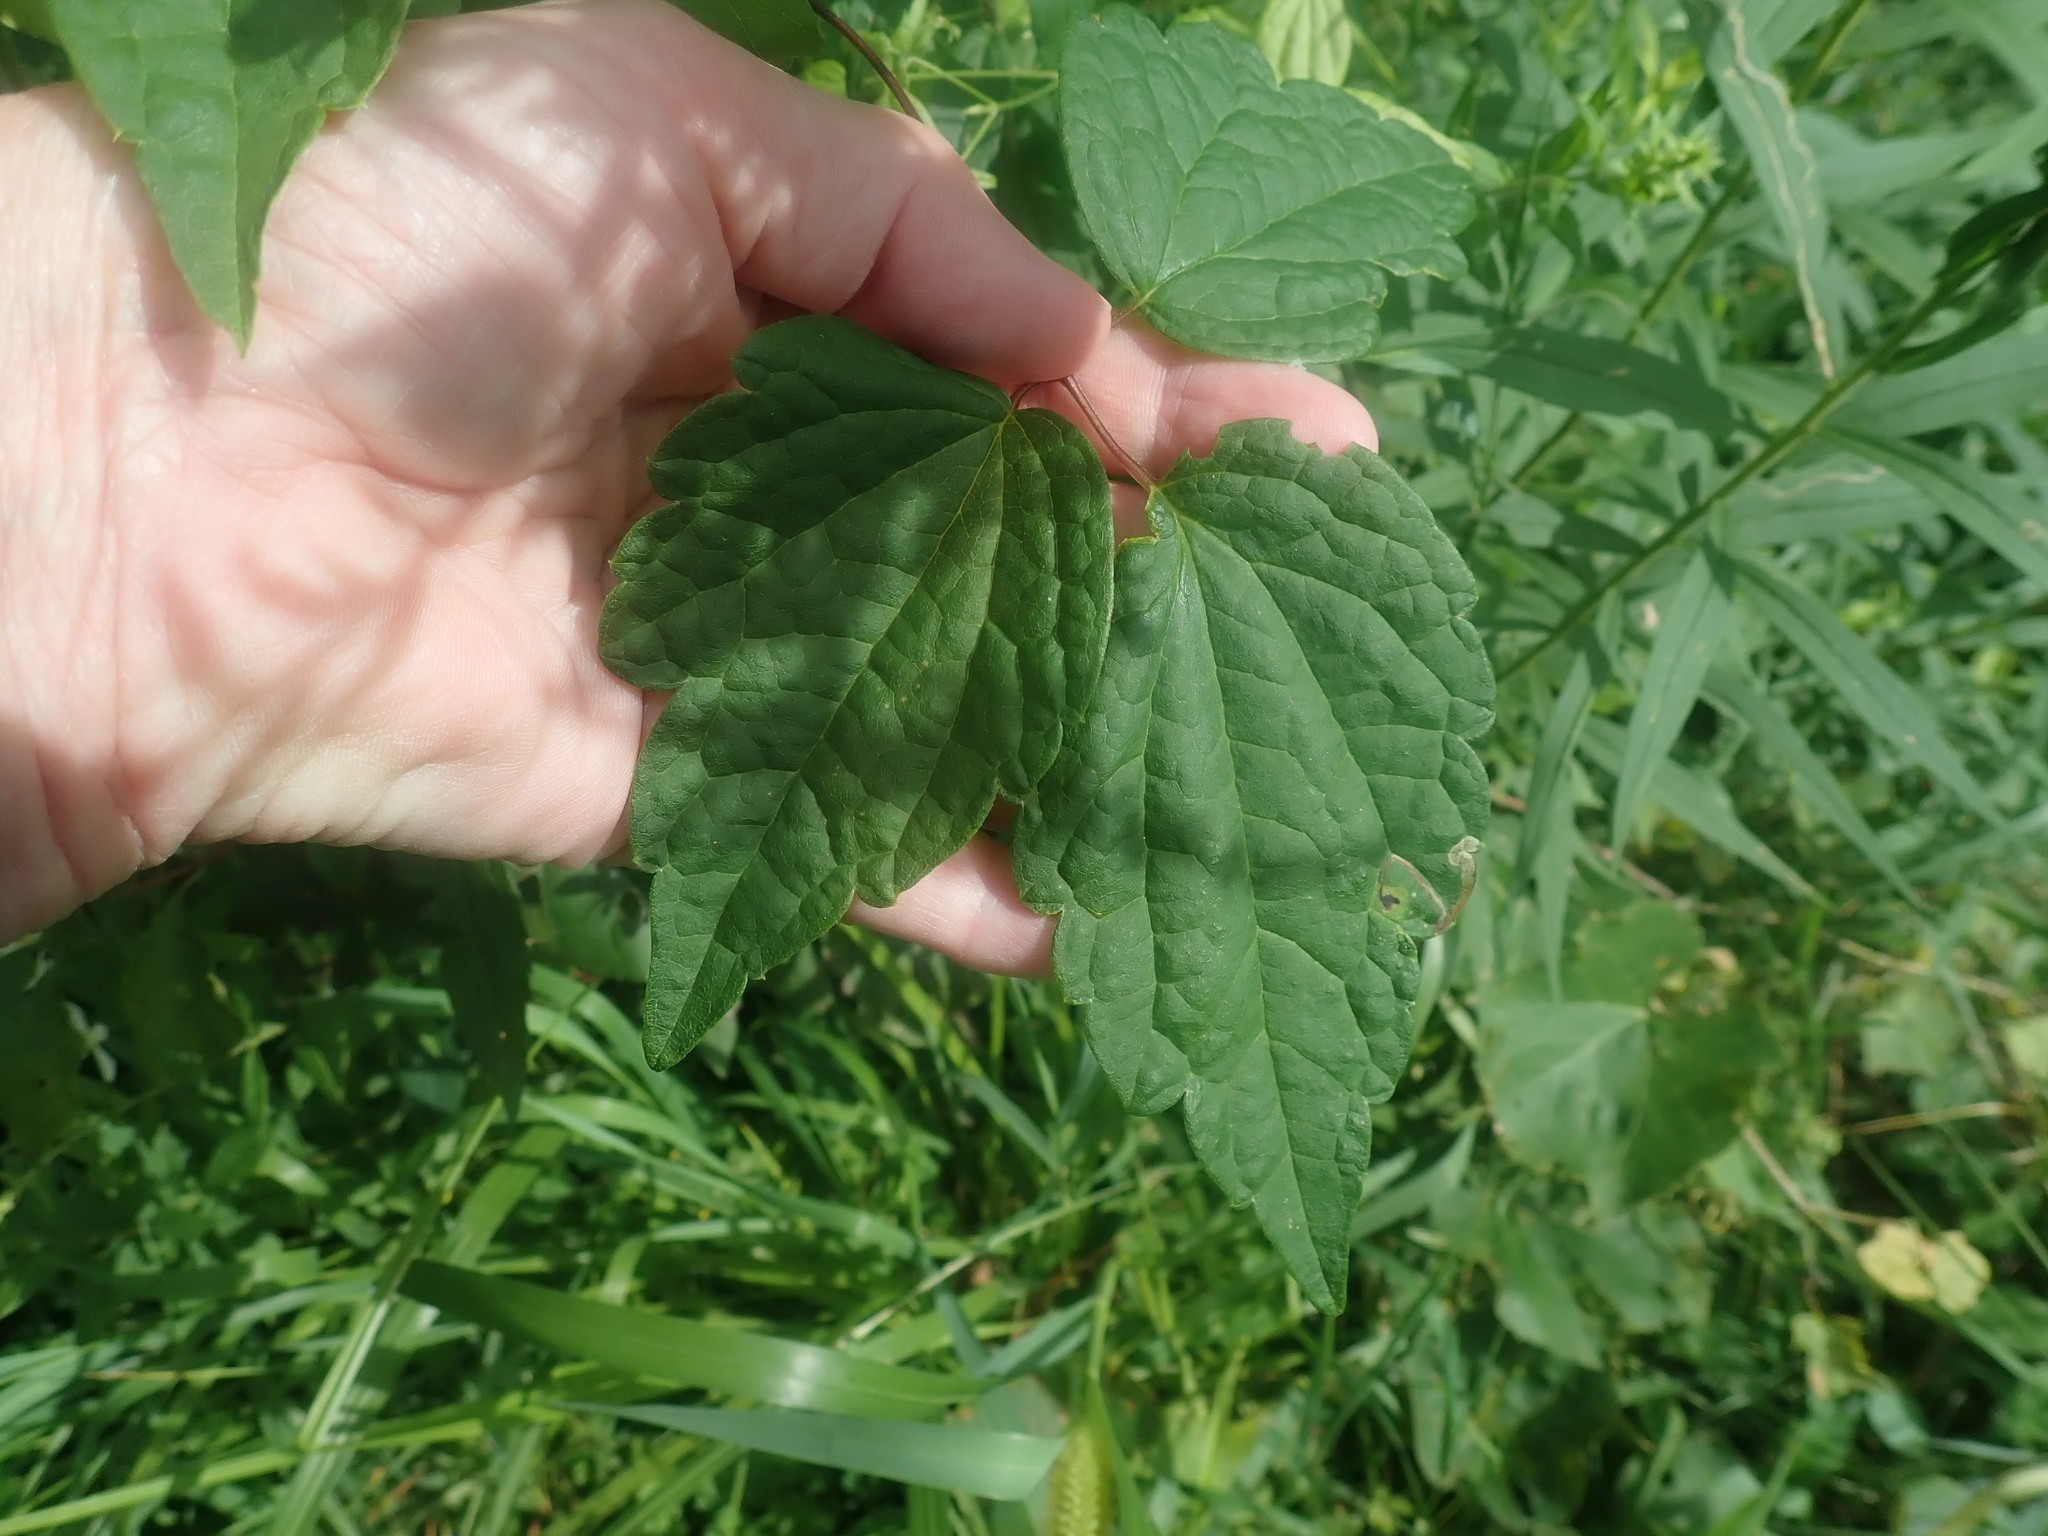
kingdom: Plantae
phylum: Tracheophyta
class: Magnoliopsida
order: Ranunculales
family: Ranunculaceae
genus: Clematis
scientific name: Clematis virginiana
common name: Virgin's-bower
